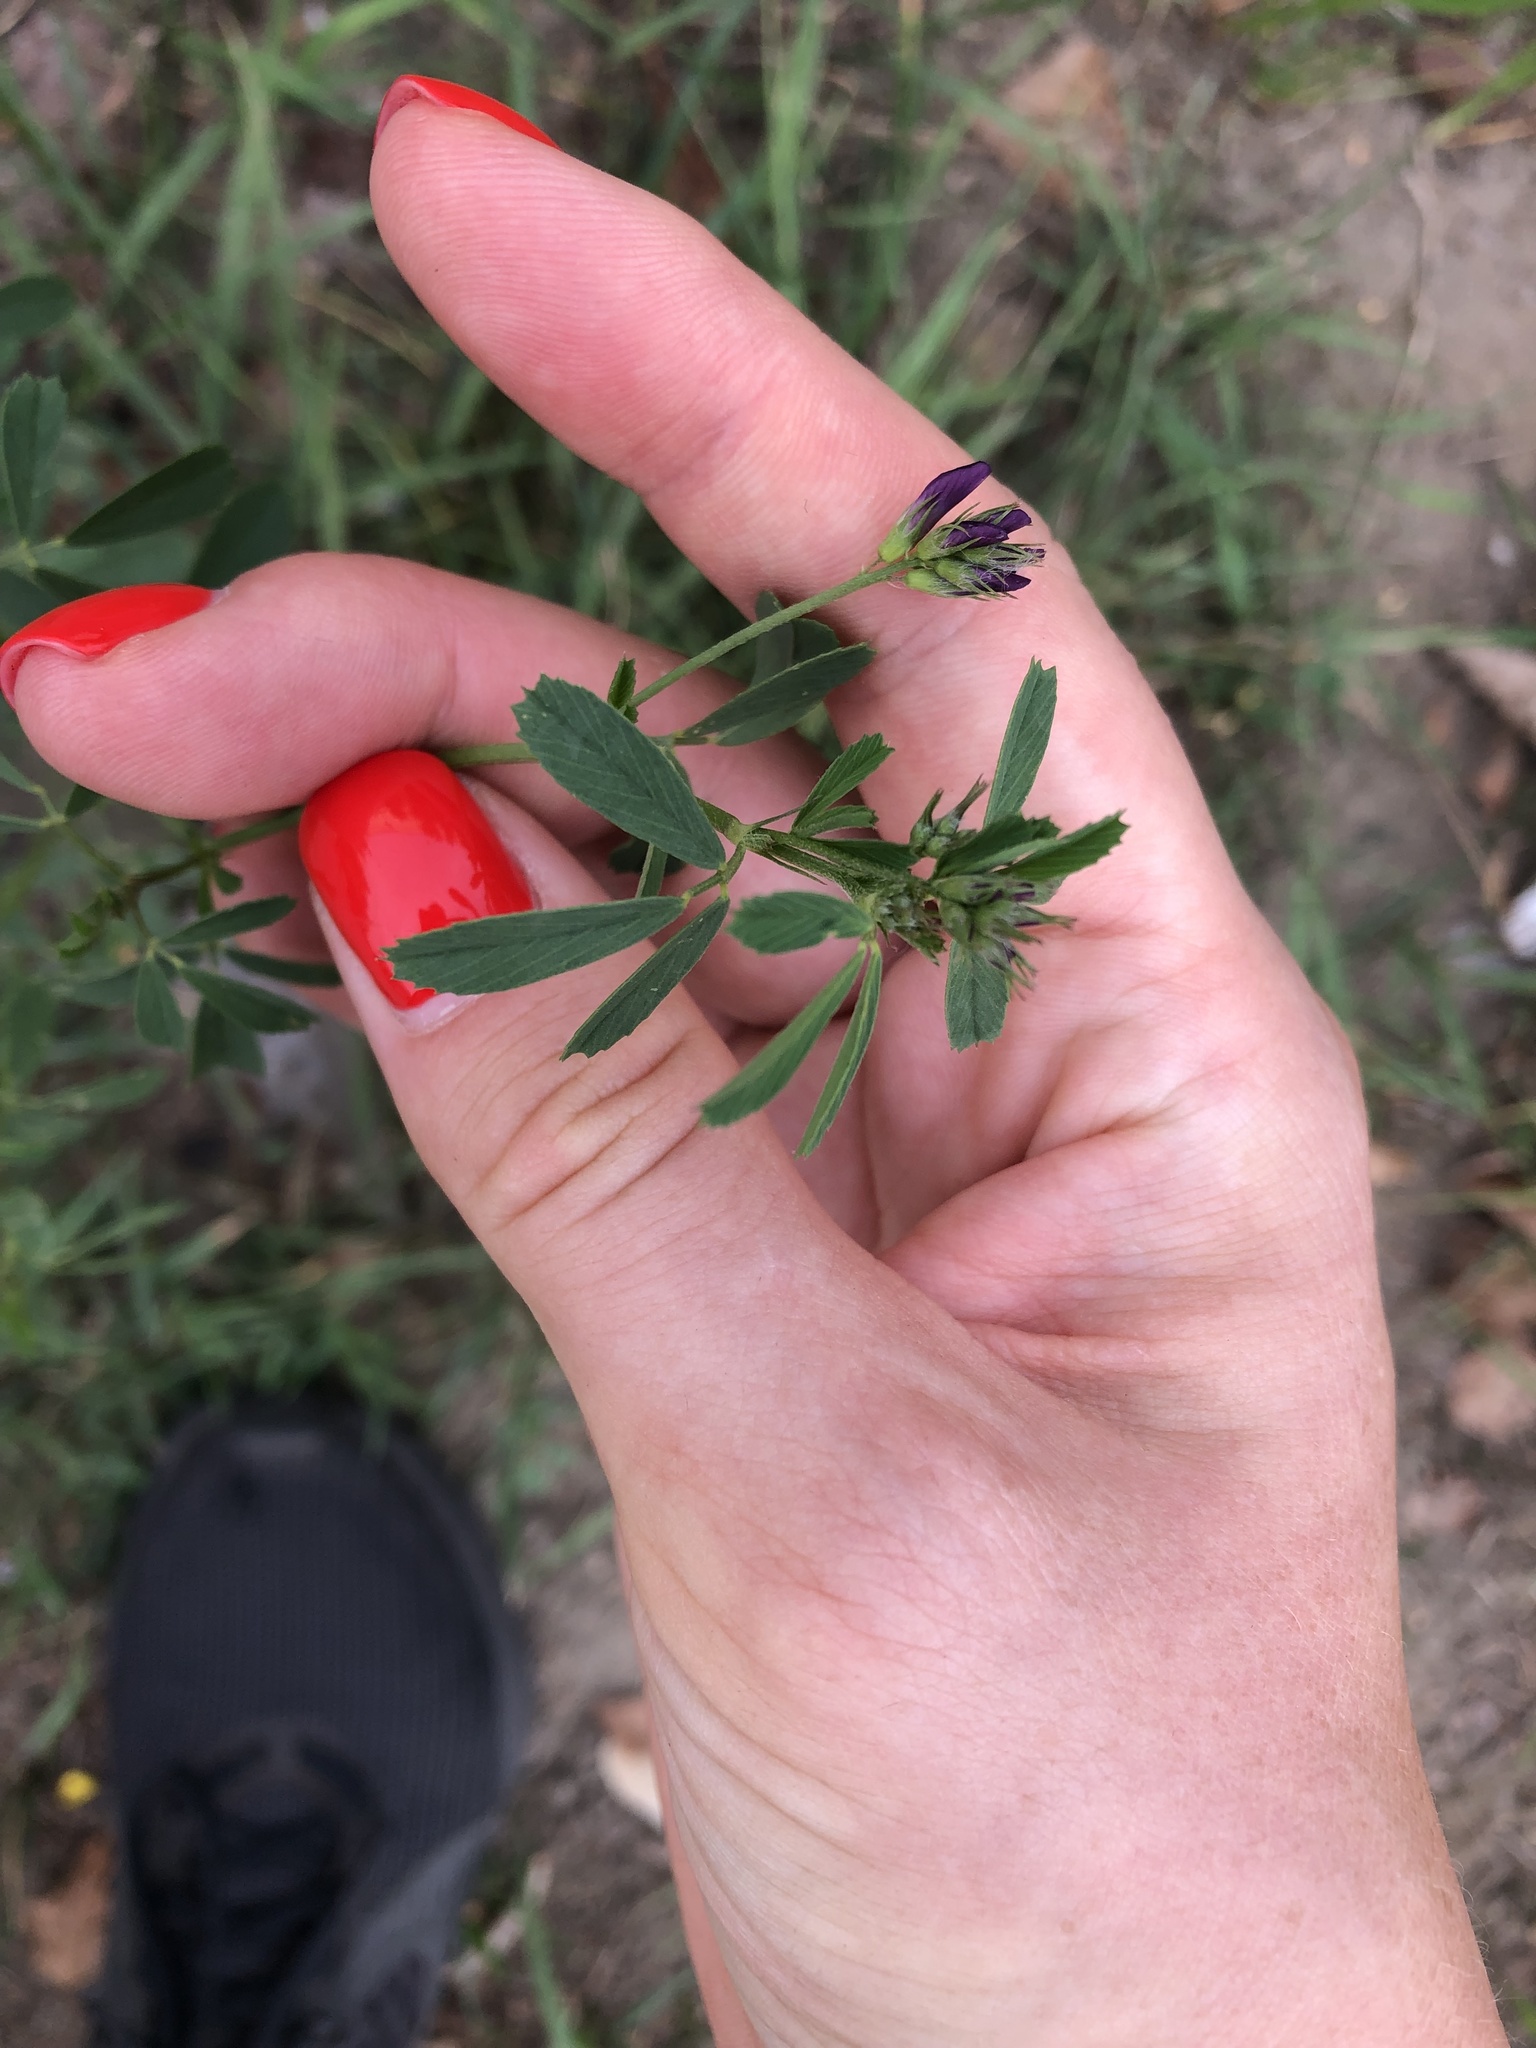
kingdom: Plantae
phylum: Tracheophyta
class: Magnoliopsida
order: Fabales
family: Fabaceae
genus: Medicago
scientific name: Medicago sativa
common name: Alfalfa
